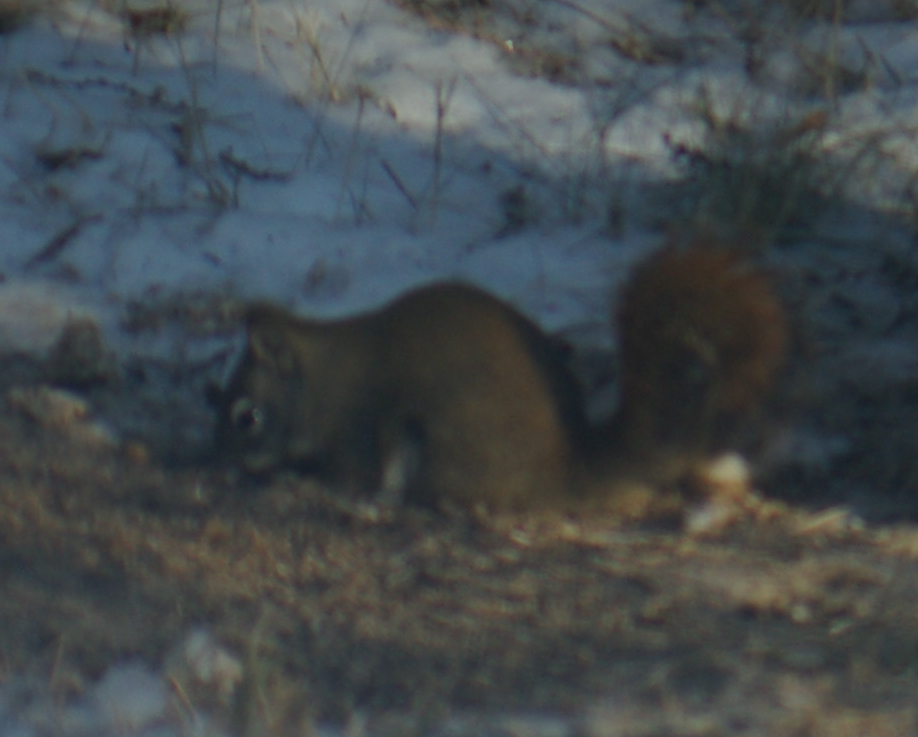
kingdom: Animalia
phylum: Chordata
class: Mammalia
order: Rodentia
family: Sciuridae
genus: Tamiasciurus
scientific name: Tamiasciurus hudsonicus
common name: Red squirrel
